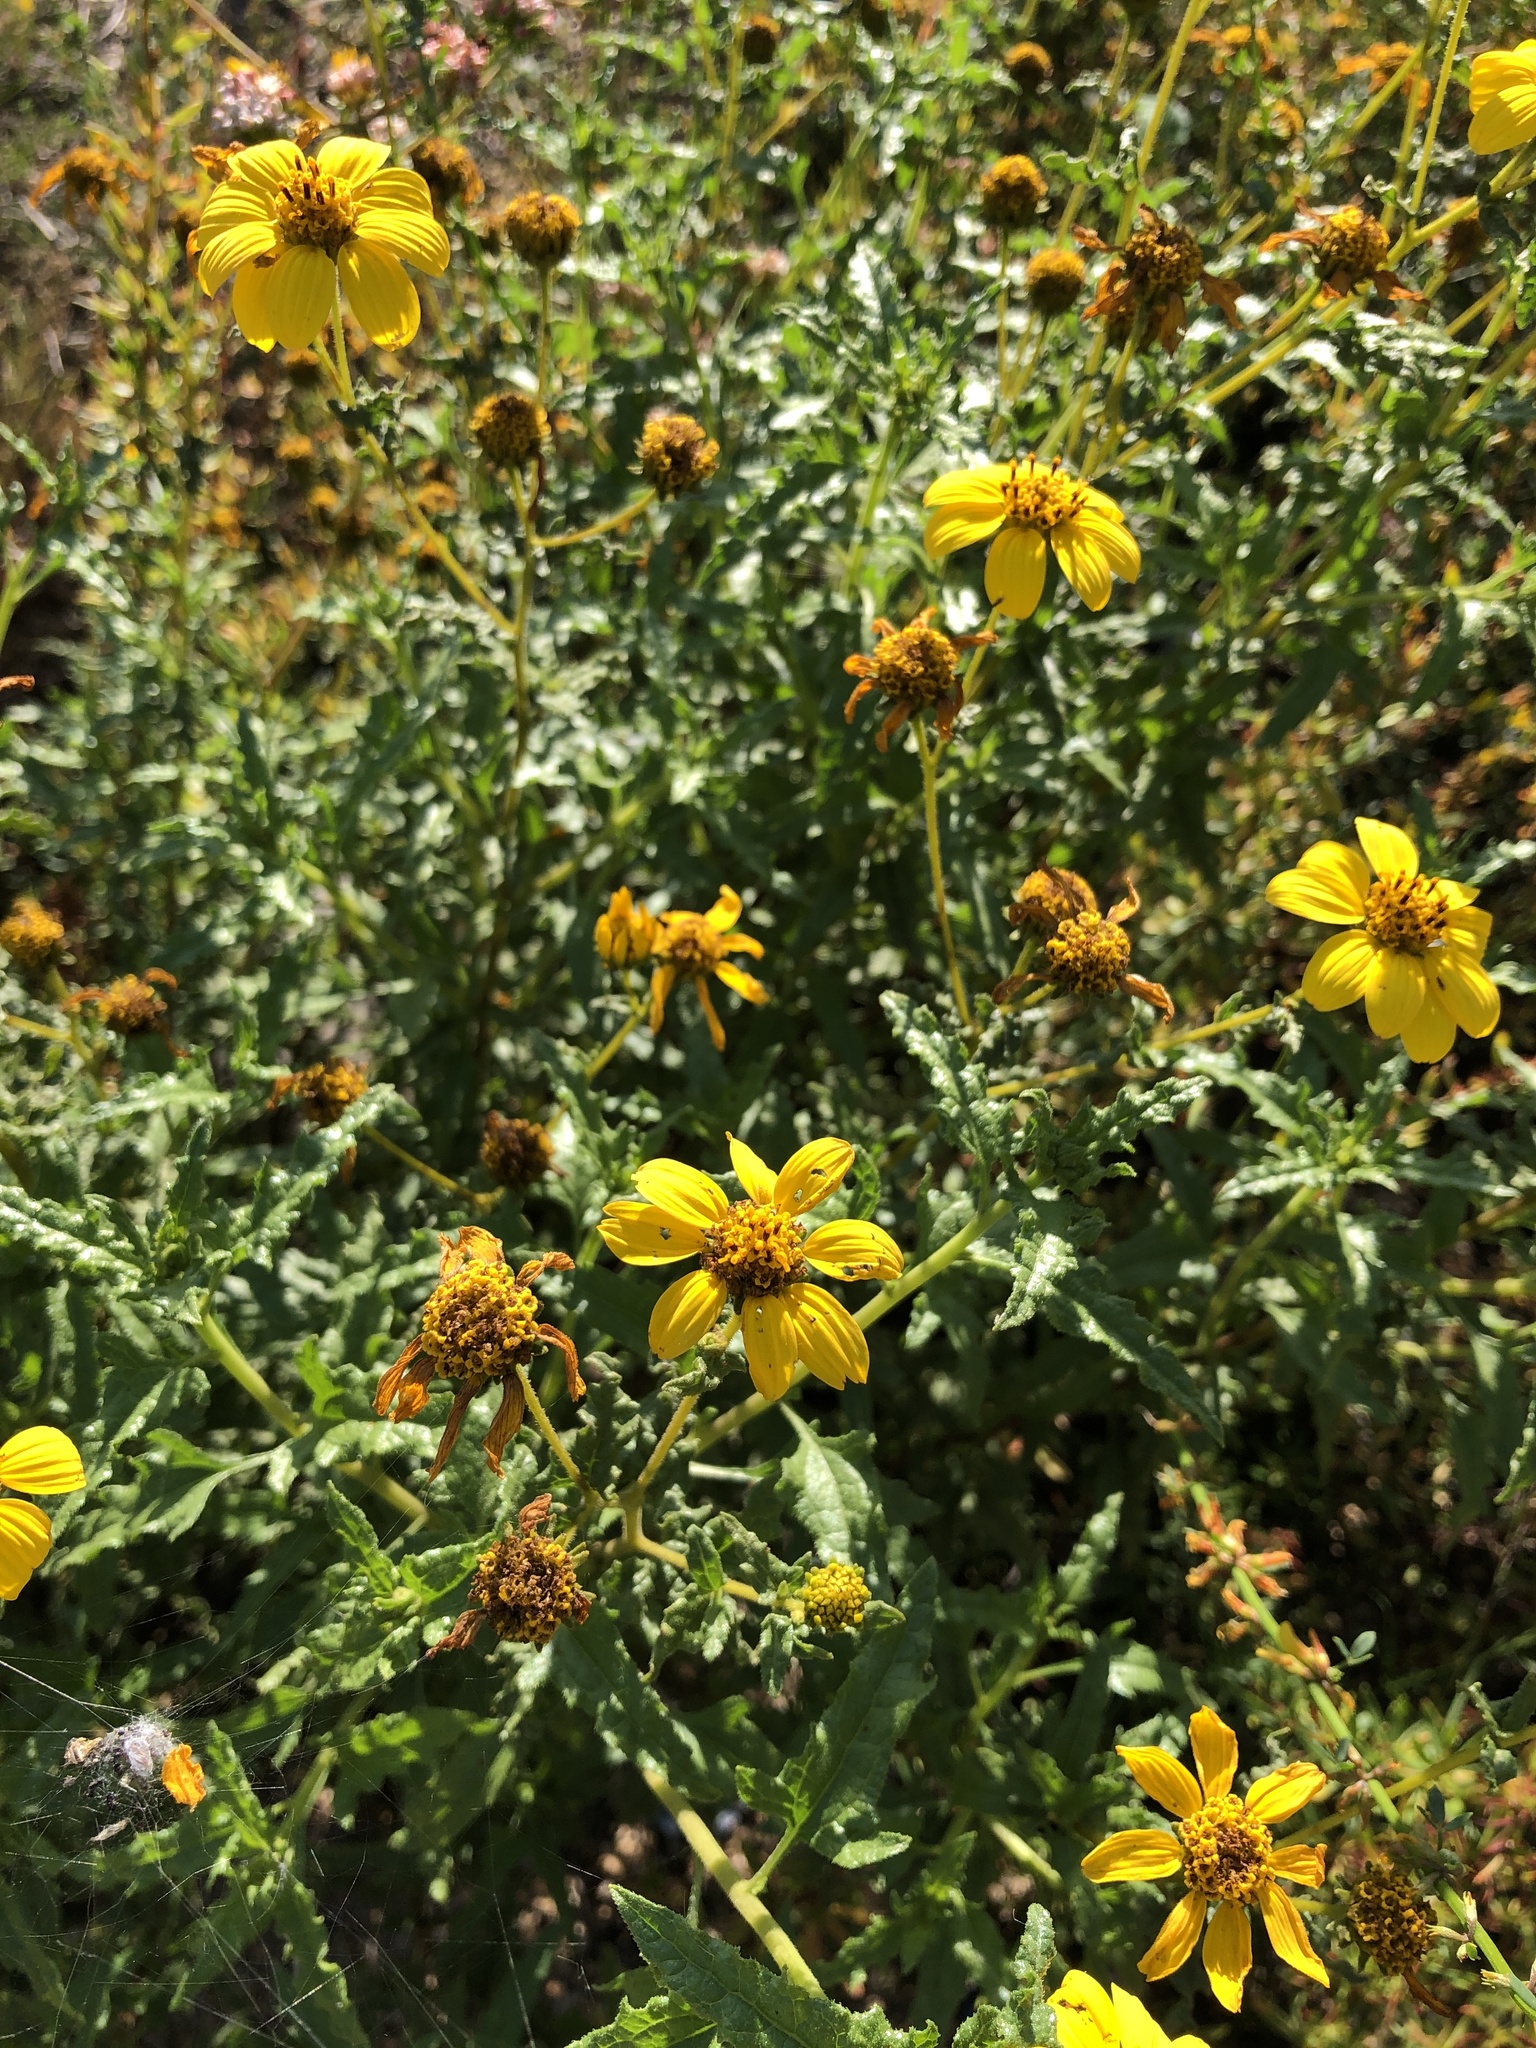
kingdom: Plantae
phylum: Tracheophyta
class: Magnoliopsida
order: Asterales
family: Asteraceae
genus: Bahiopsis
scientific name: Bahiopsis laciniata
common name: San diego county viguiera
